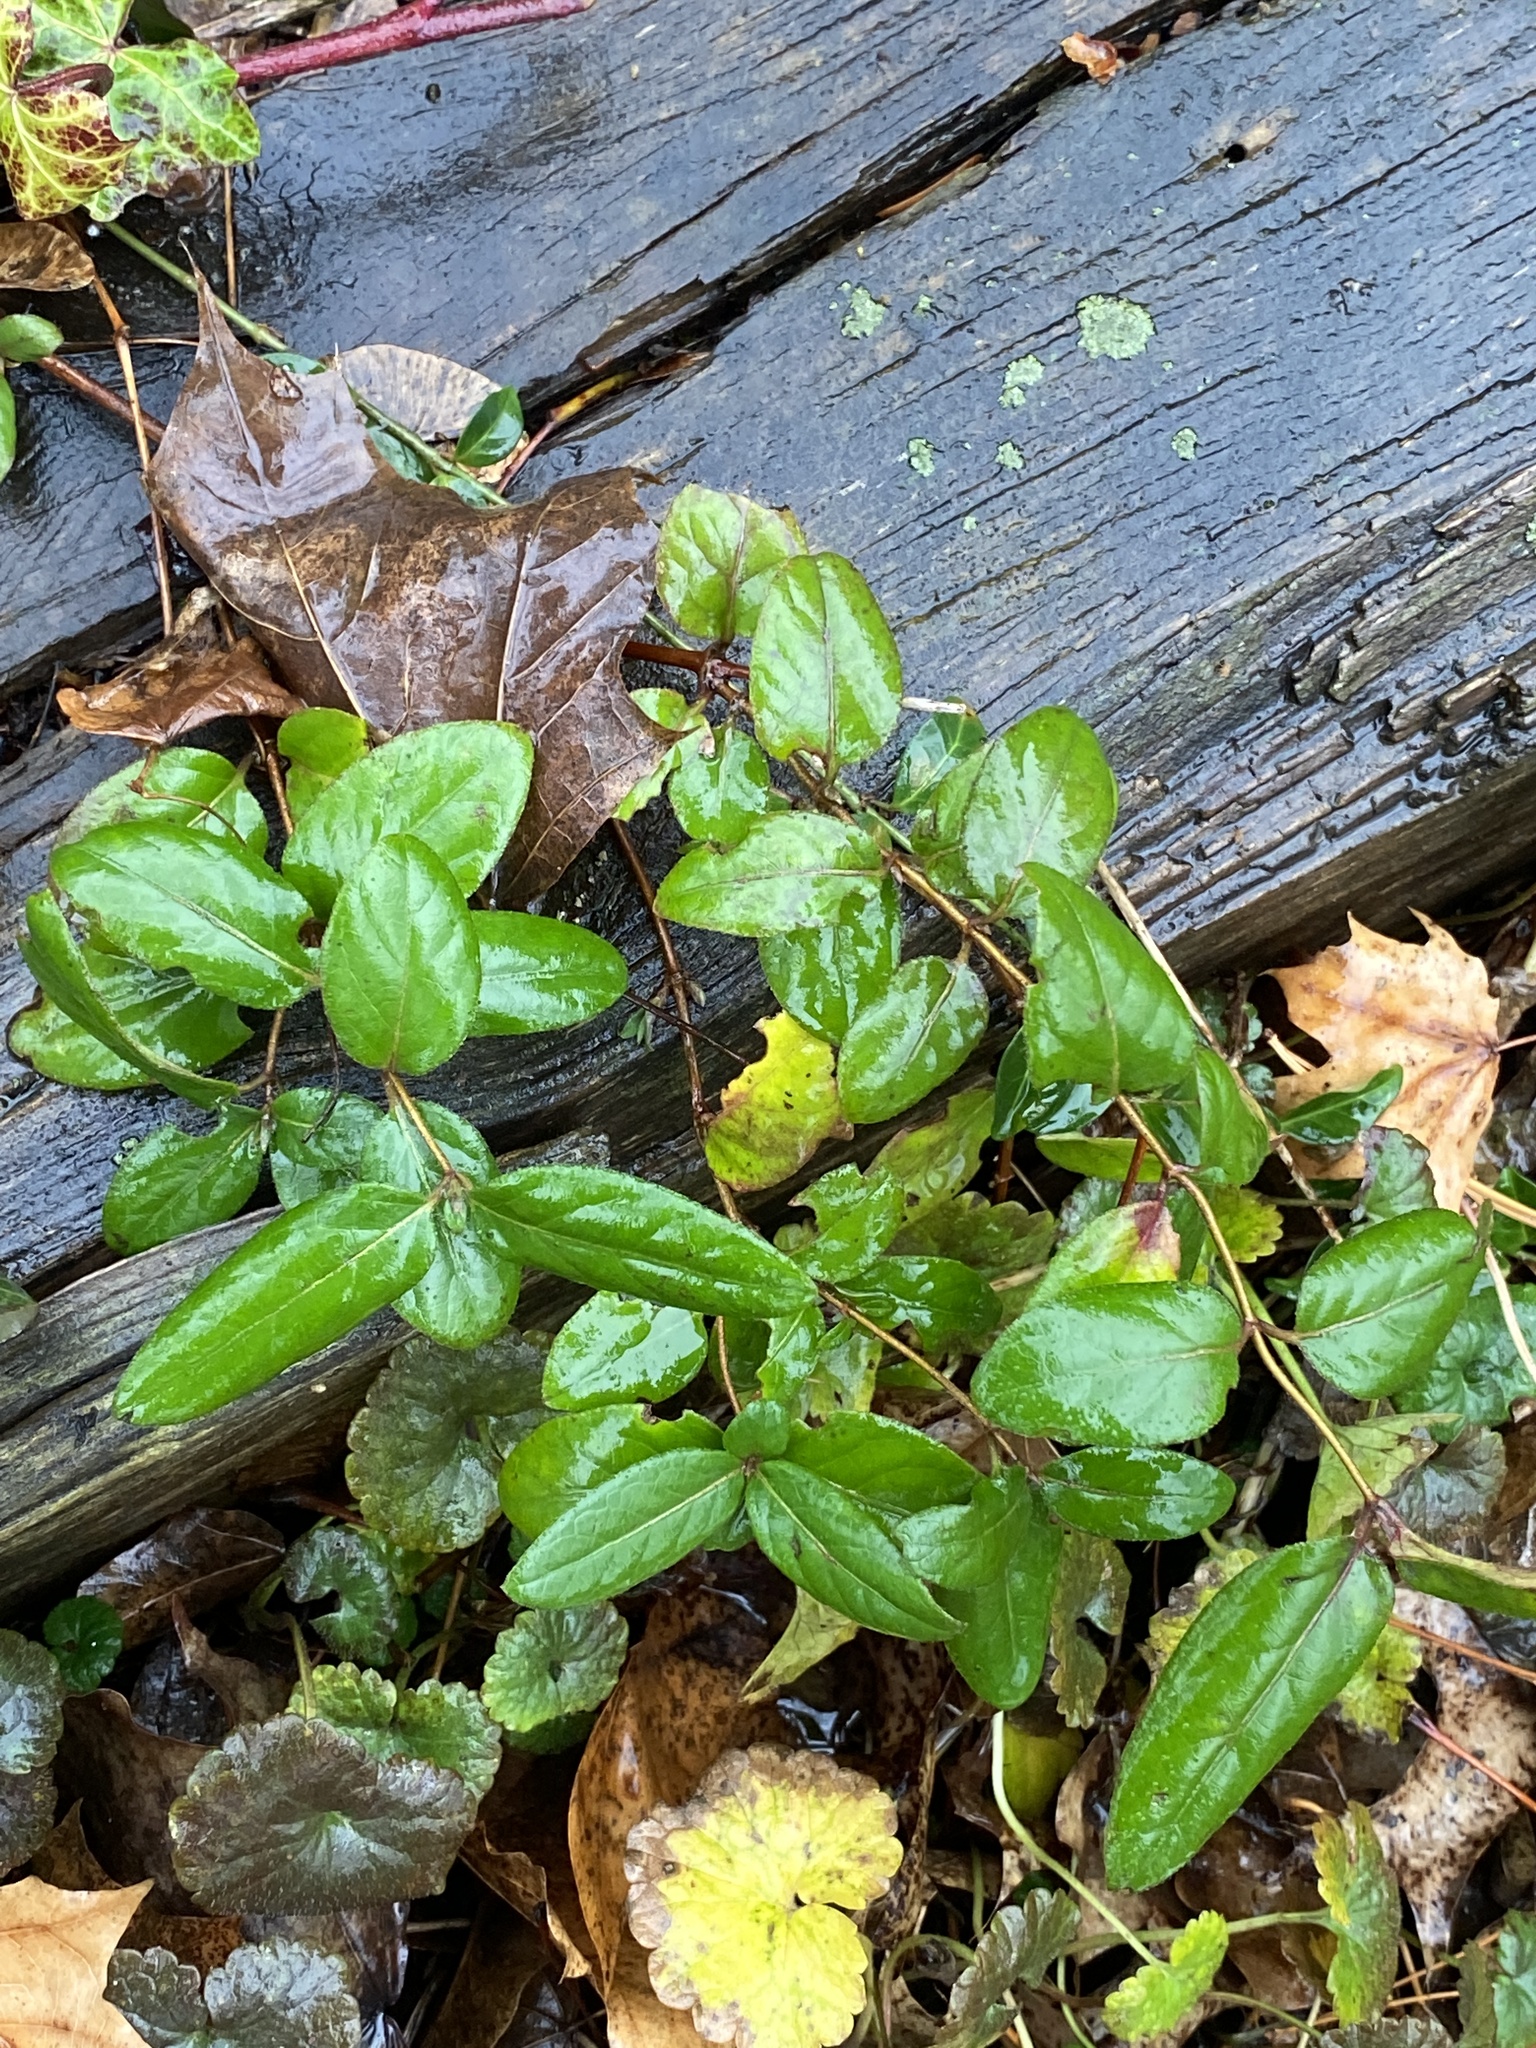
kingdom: Plantae
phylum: Tracheophyta
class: Magnoliopsida
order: Dipsacales
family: Caprifoliaceae
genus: Lonicera
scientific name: Lonicera japonica
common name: Japanese honeysuckle
